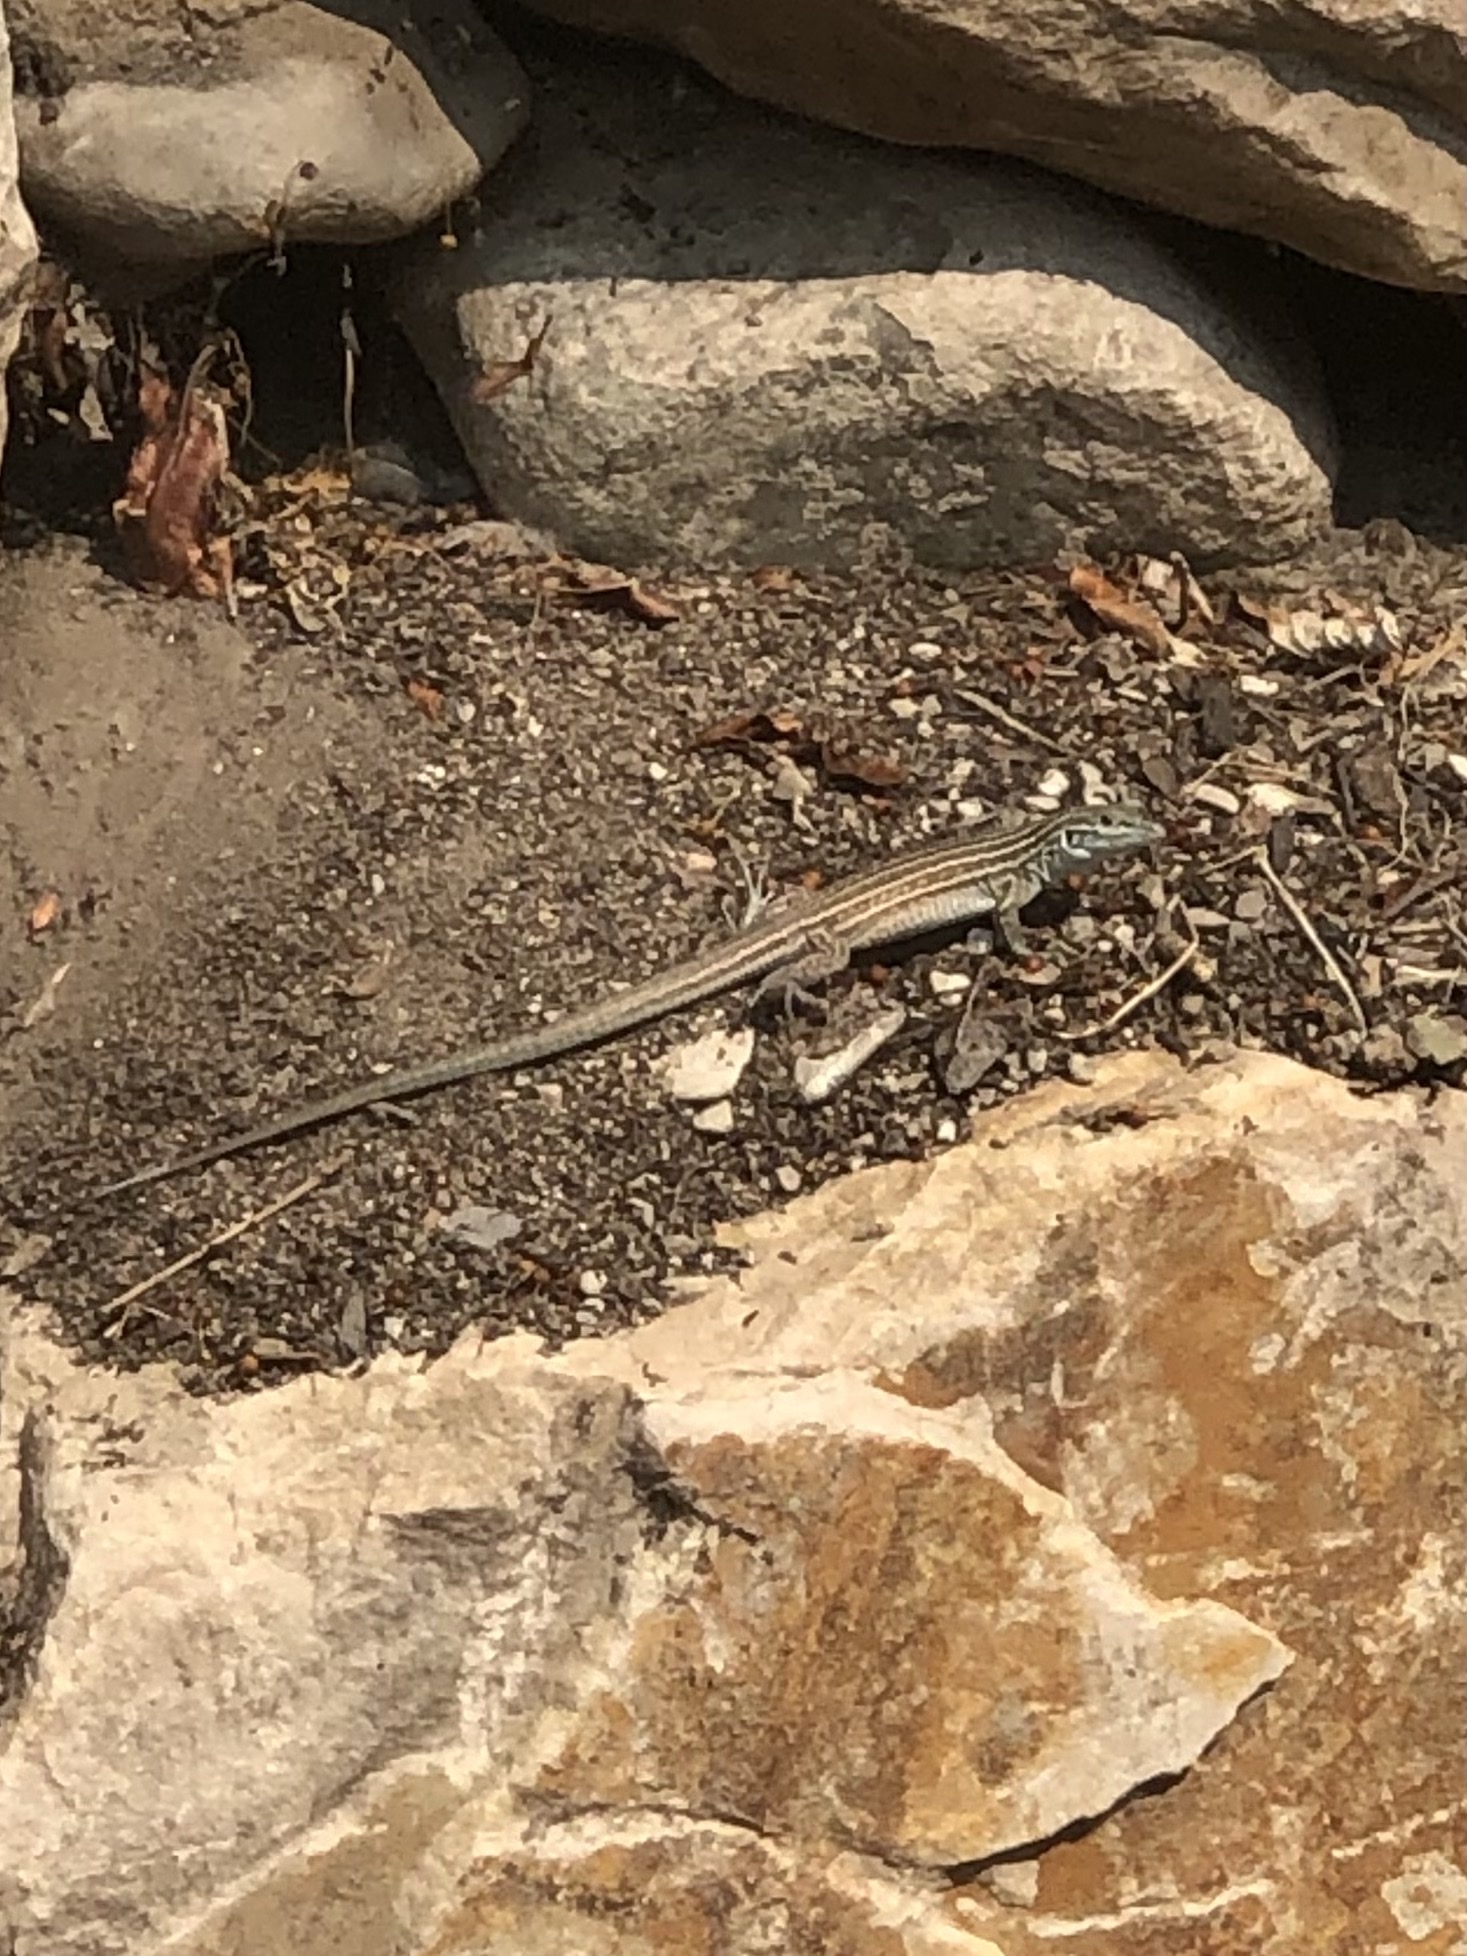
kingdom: Animalia
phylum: Chordata
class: Squamata
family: Teiidae
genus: Aspidoscelis
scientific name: Aspidoscelis neomexicanus
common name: New mexico whiptail
